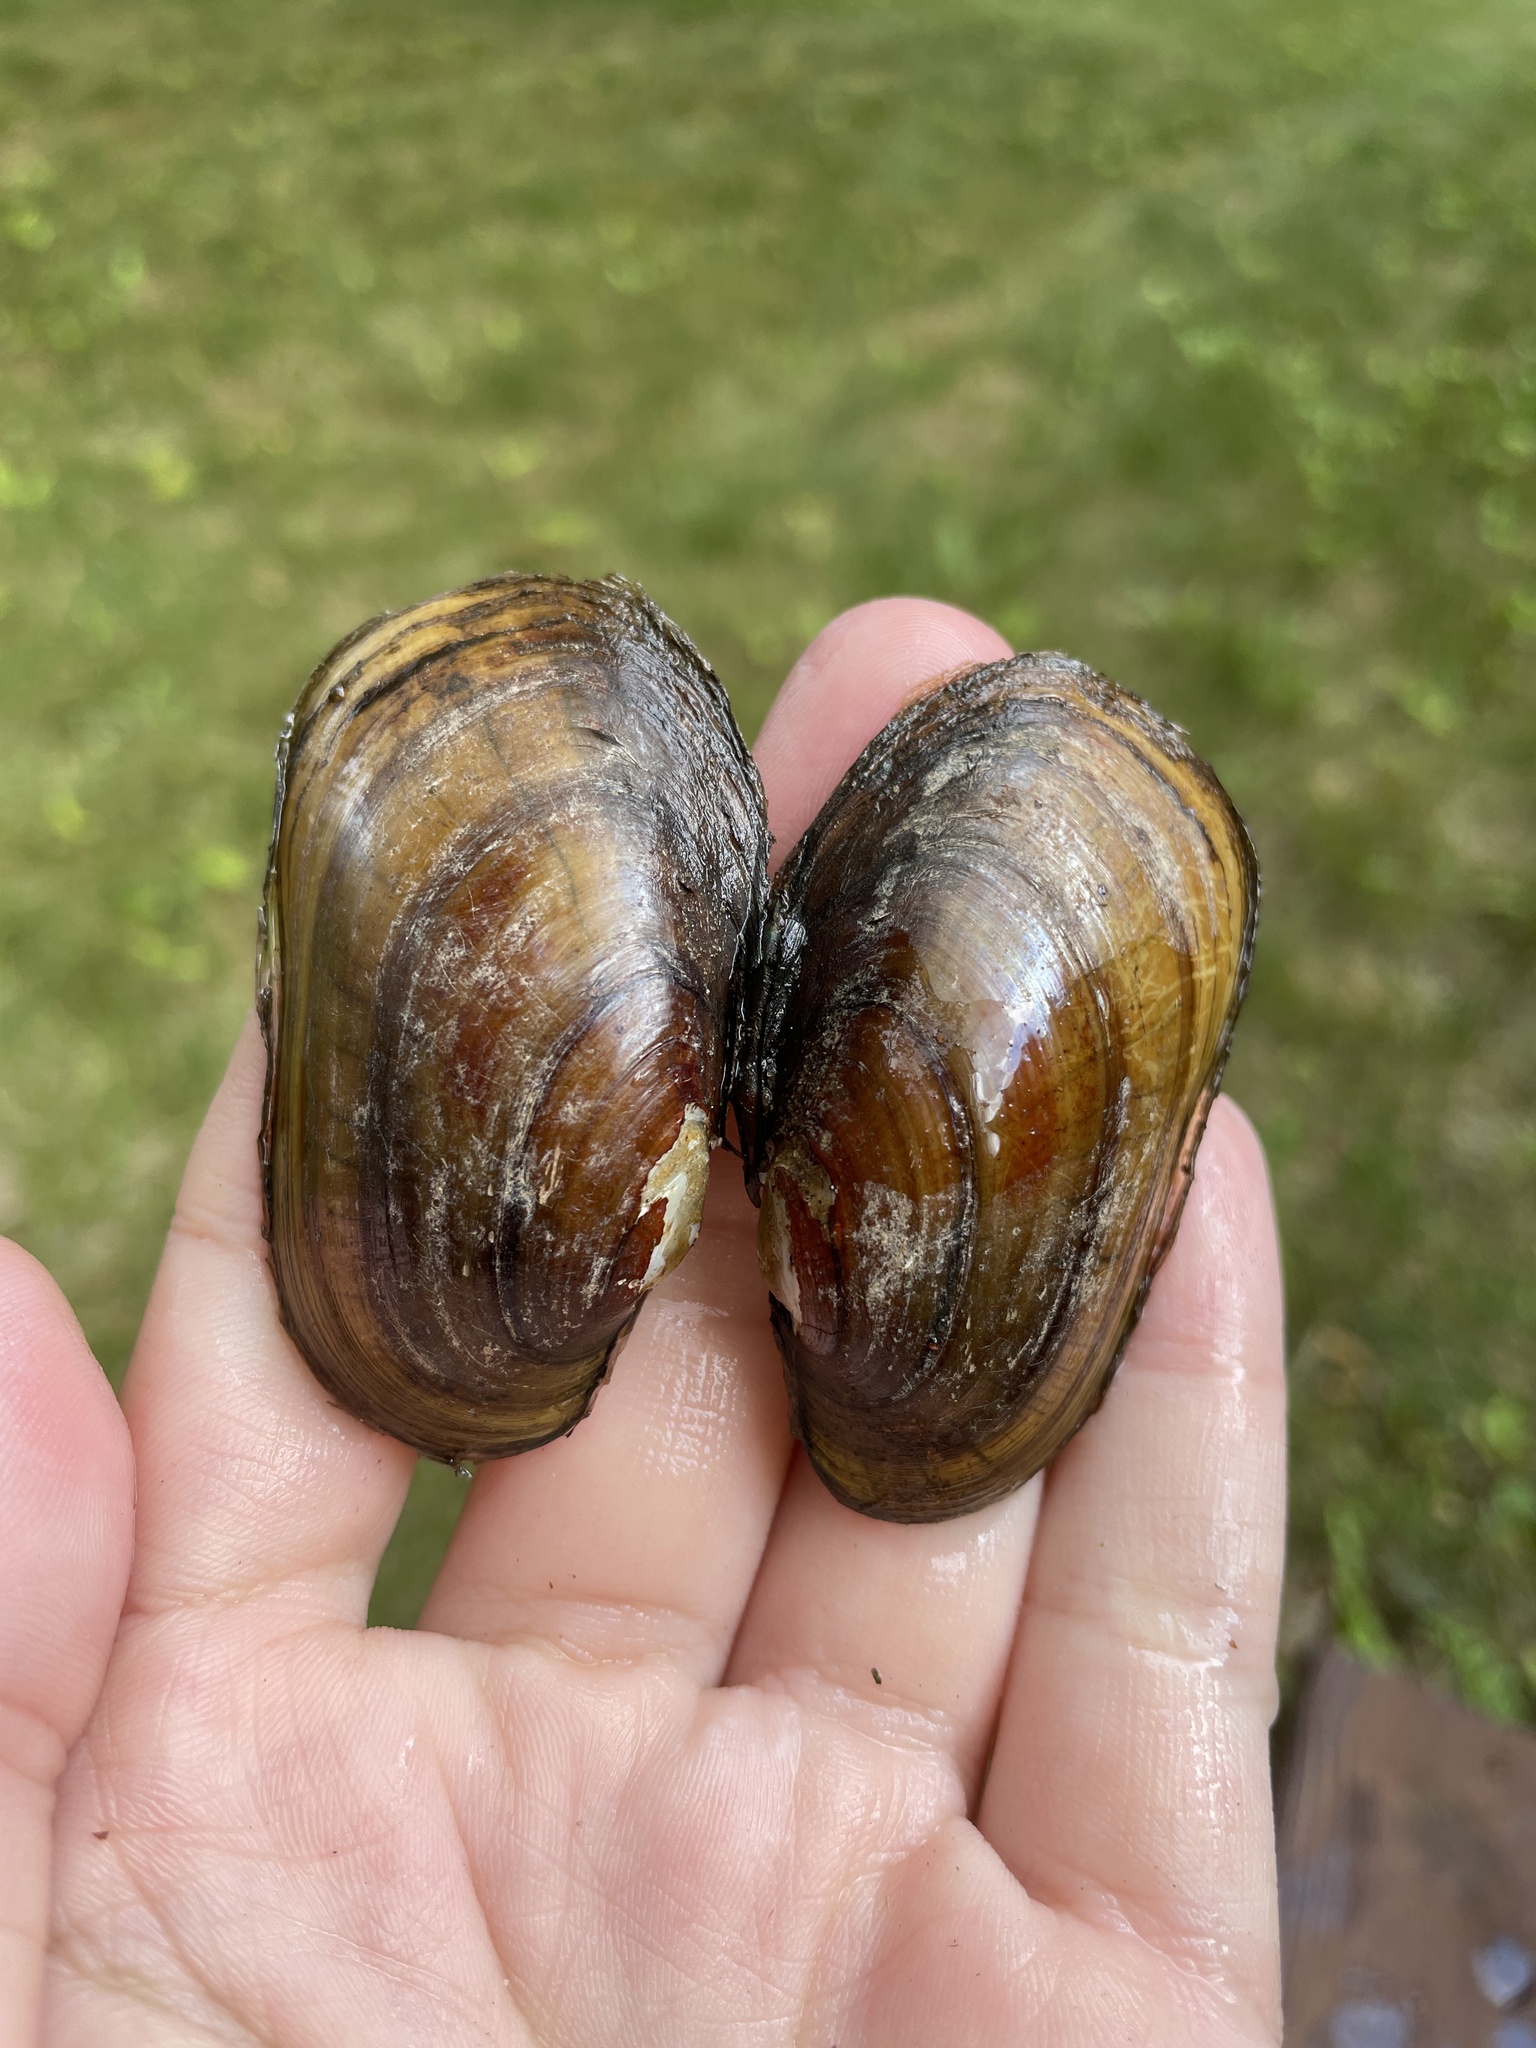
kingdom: Animalia
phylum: Mollusca
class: Bivalvia
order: Unionida
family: Unionidae
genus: Lampsilis
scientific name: Lampsilis siliquoidea
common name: Fatmucket
